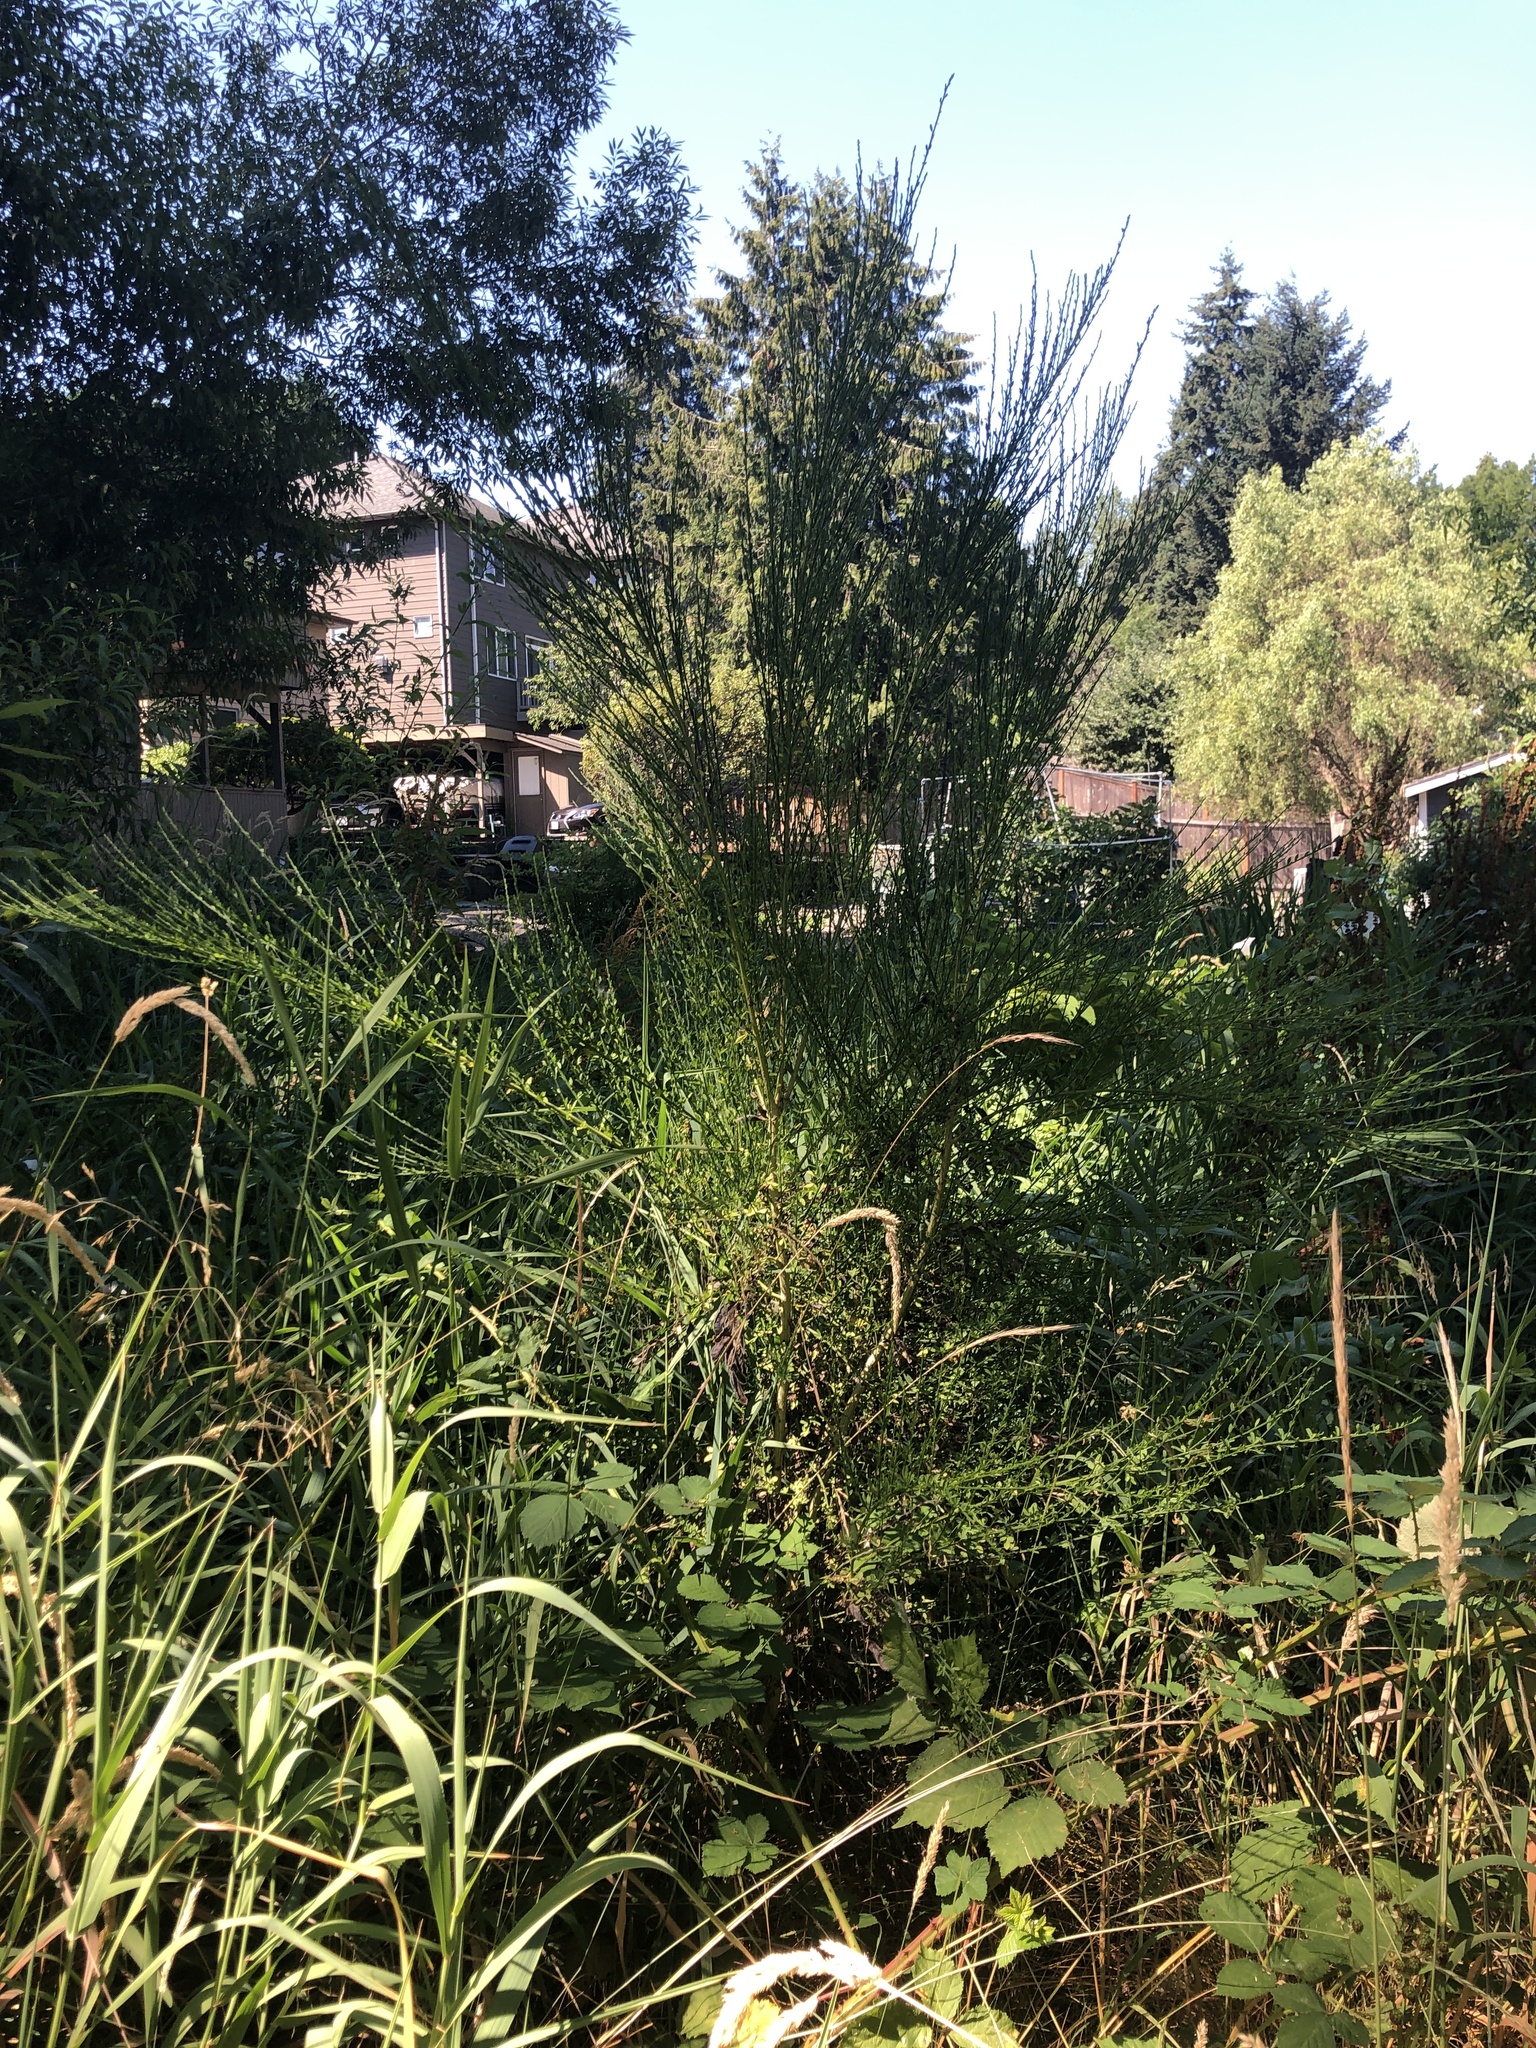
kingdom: Plantae
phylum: Tracheophyta
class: Magnoliopsida
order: Fabales
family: Fabaceae
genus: Cytisus
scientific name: Cytisus scoparius
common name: Scotch broom
